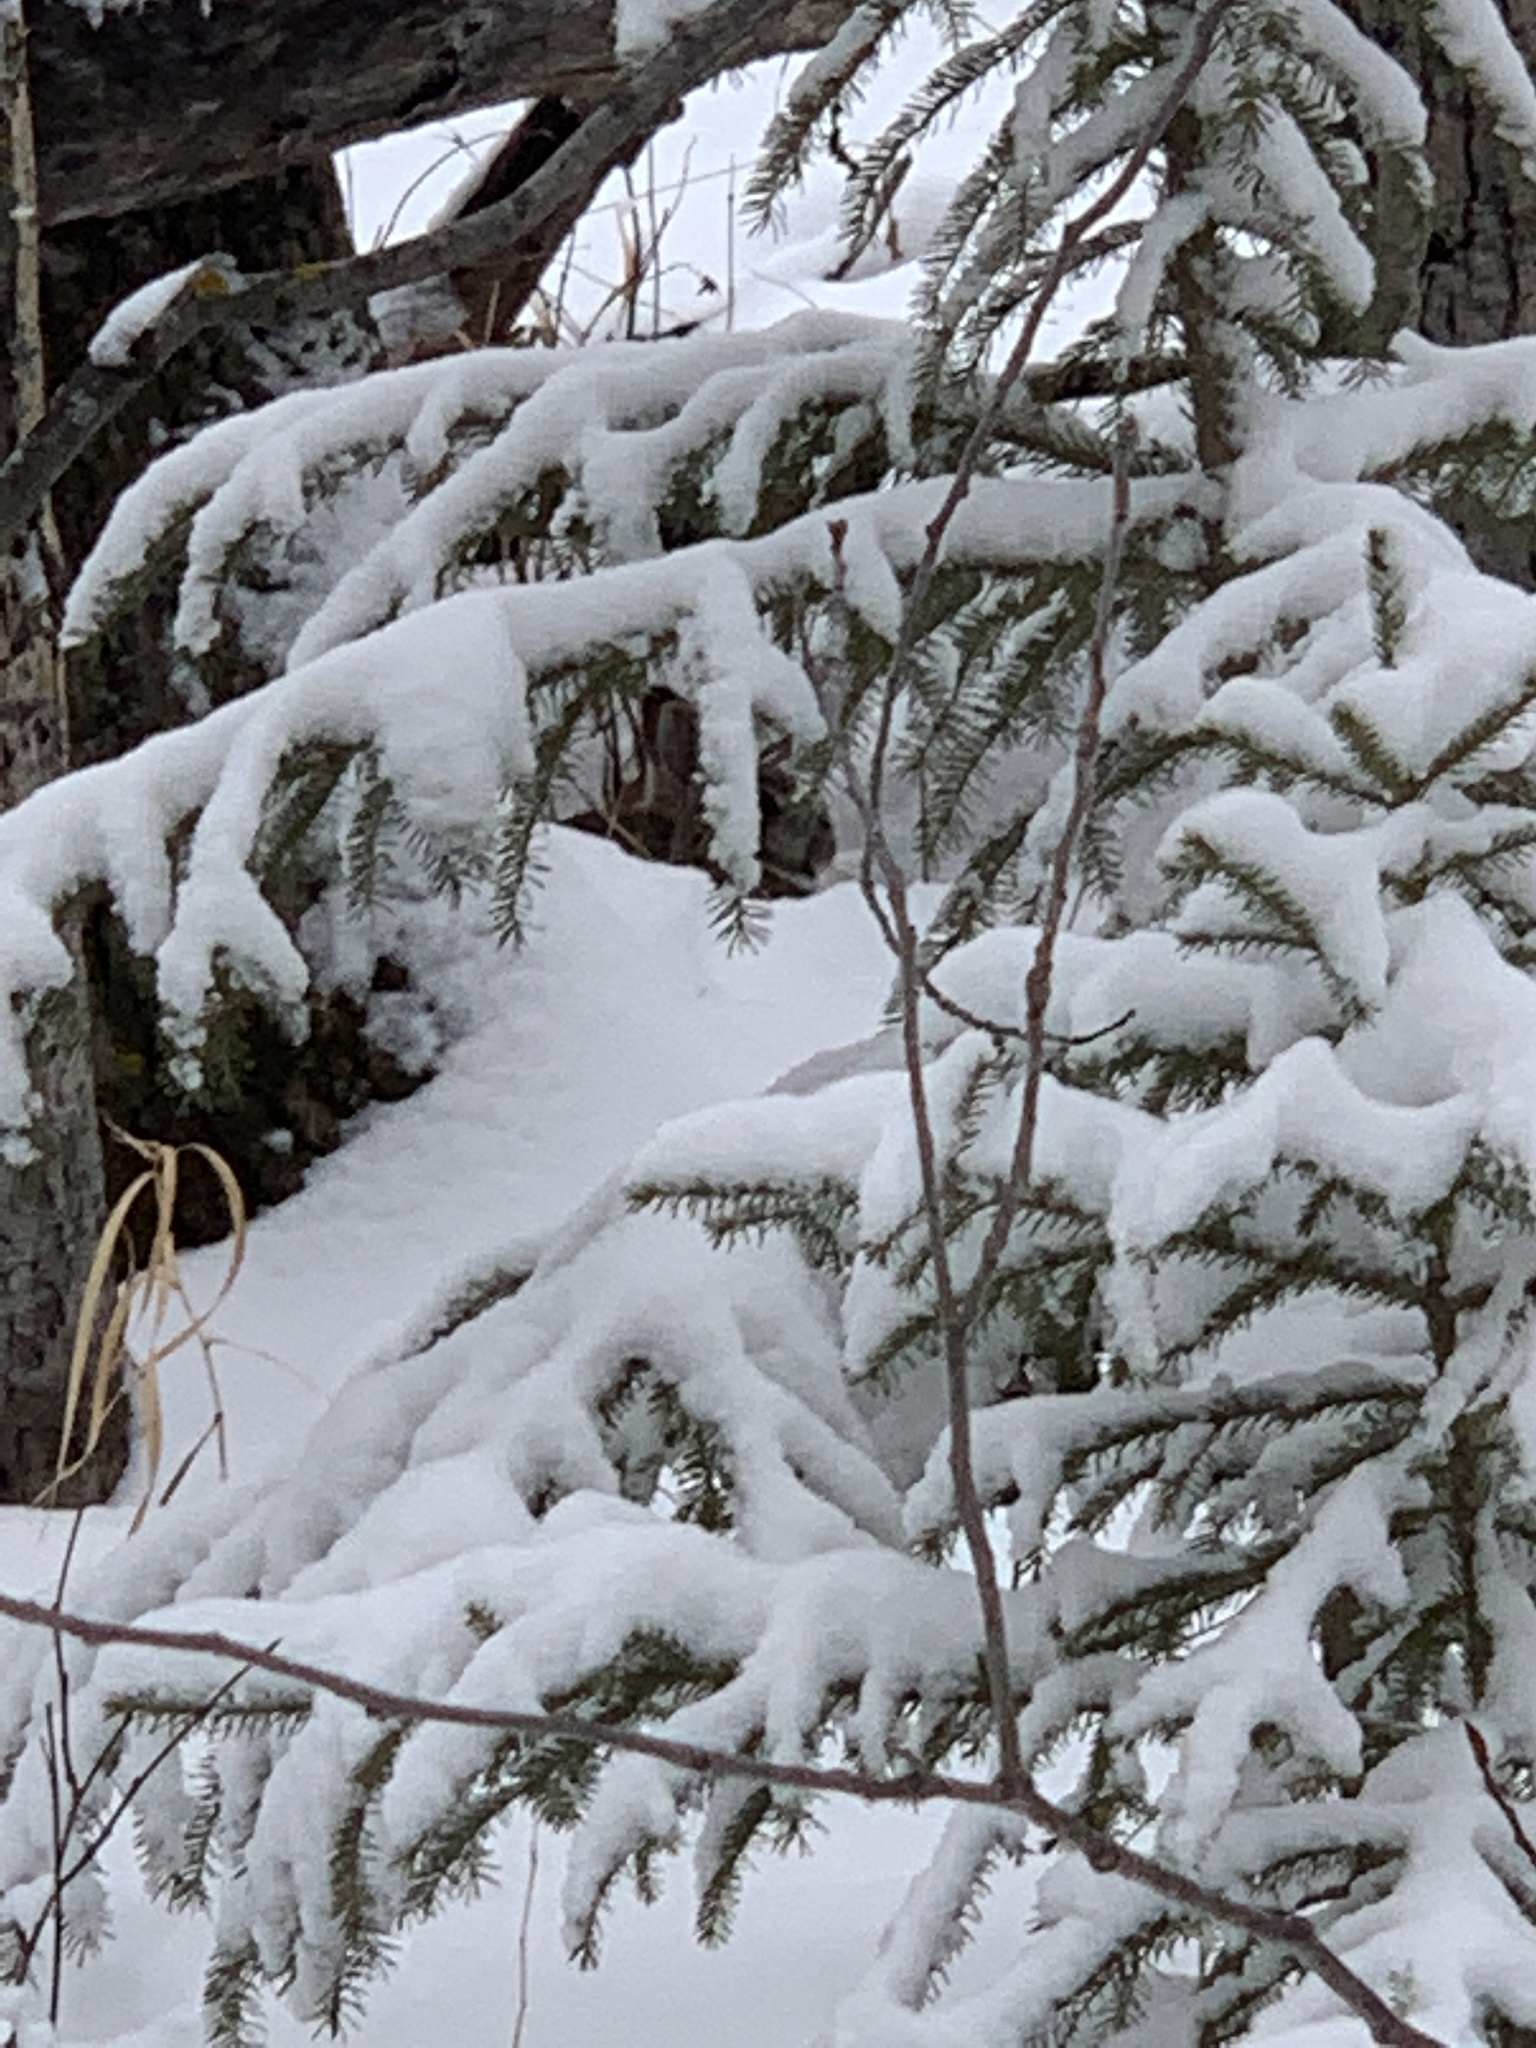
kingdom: Animalia
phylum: Chordata
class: Mammalia
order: Lagomorpha
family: Leporidae
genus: Sylvilagus
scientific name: Sylvilagus floridanus
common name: Eastern cottontail
